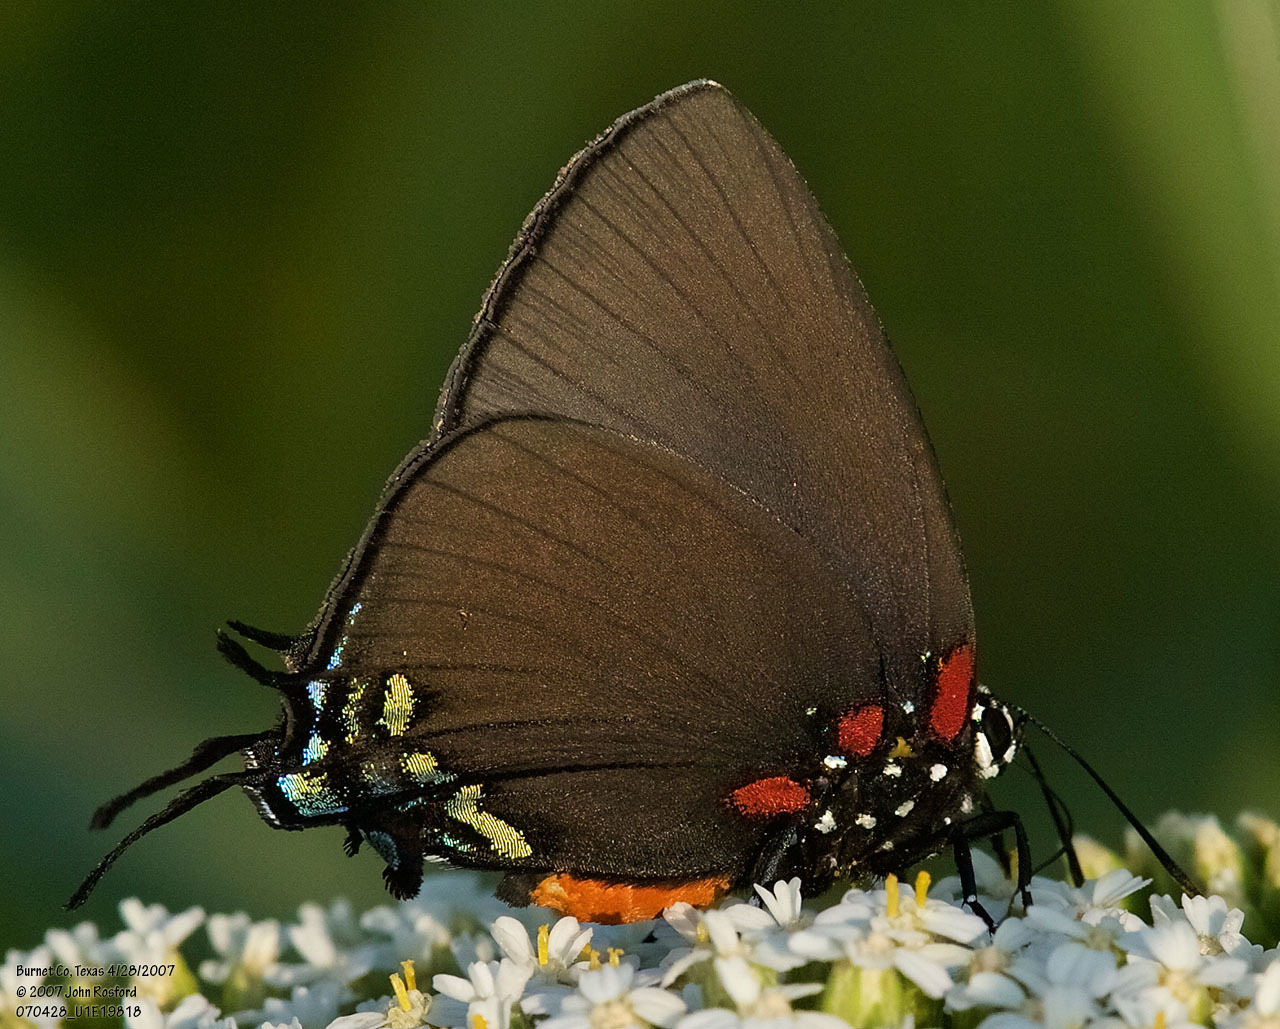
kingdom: Animalia
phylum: Arthropoda
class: Insecta
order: Lepidoptera
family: Lycaenidae
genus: Atlides
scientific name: Atlides halesus
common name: Great purple hairstreak
